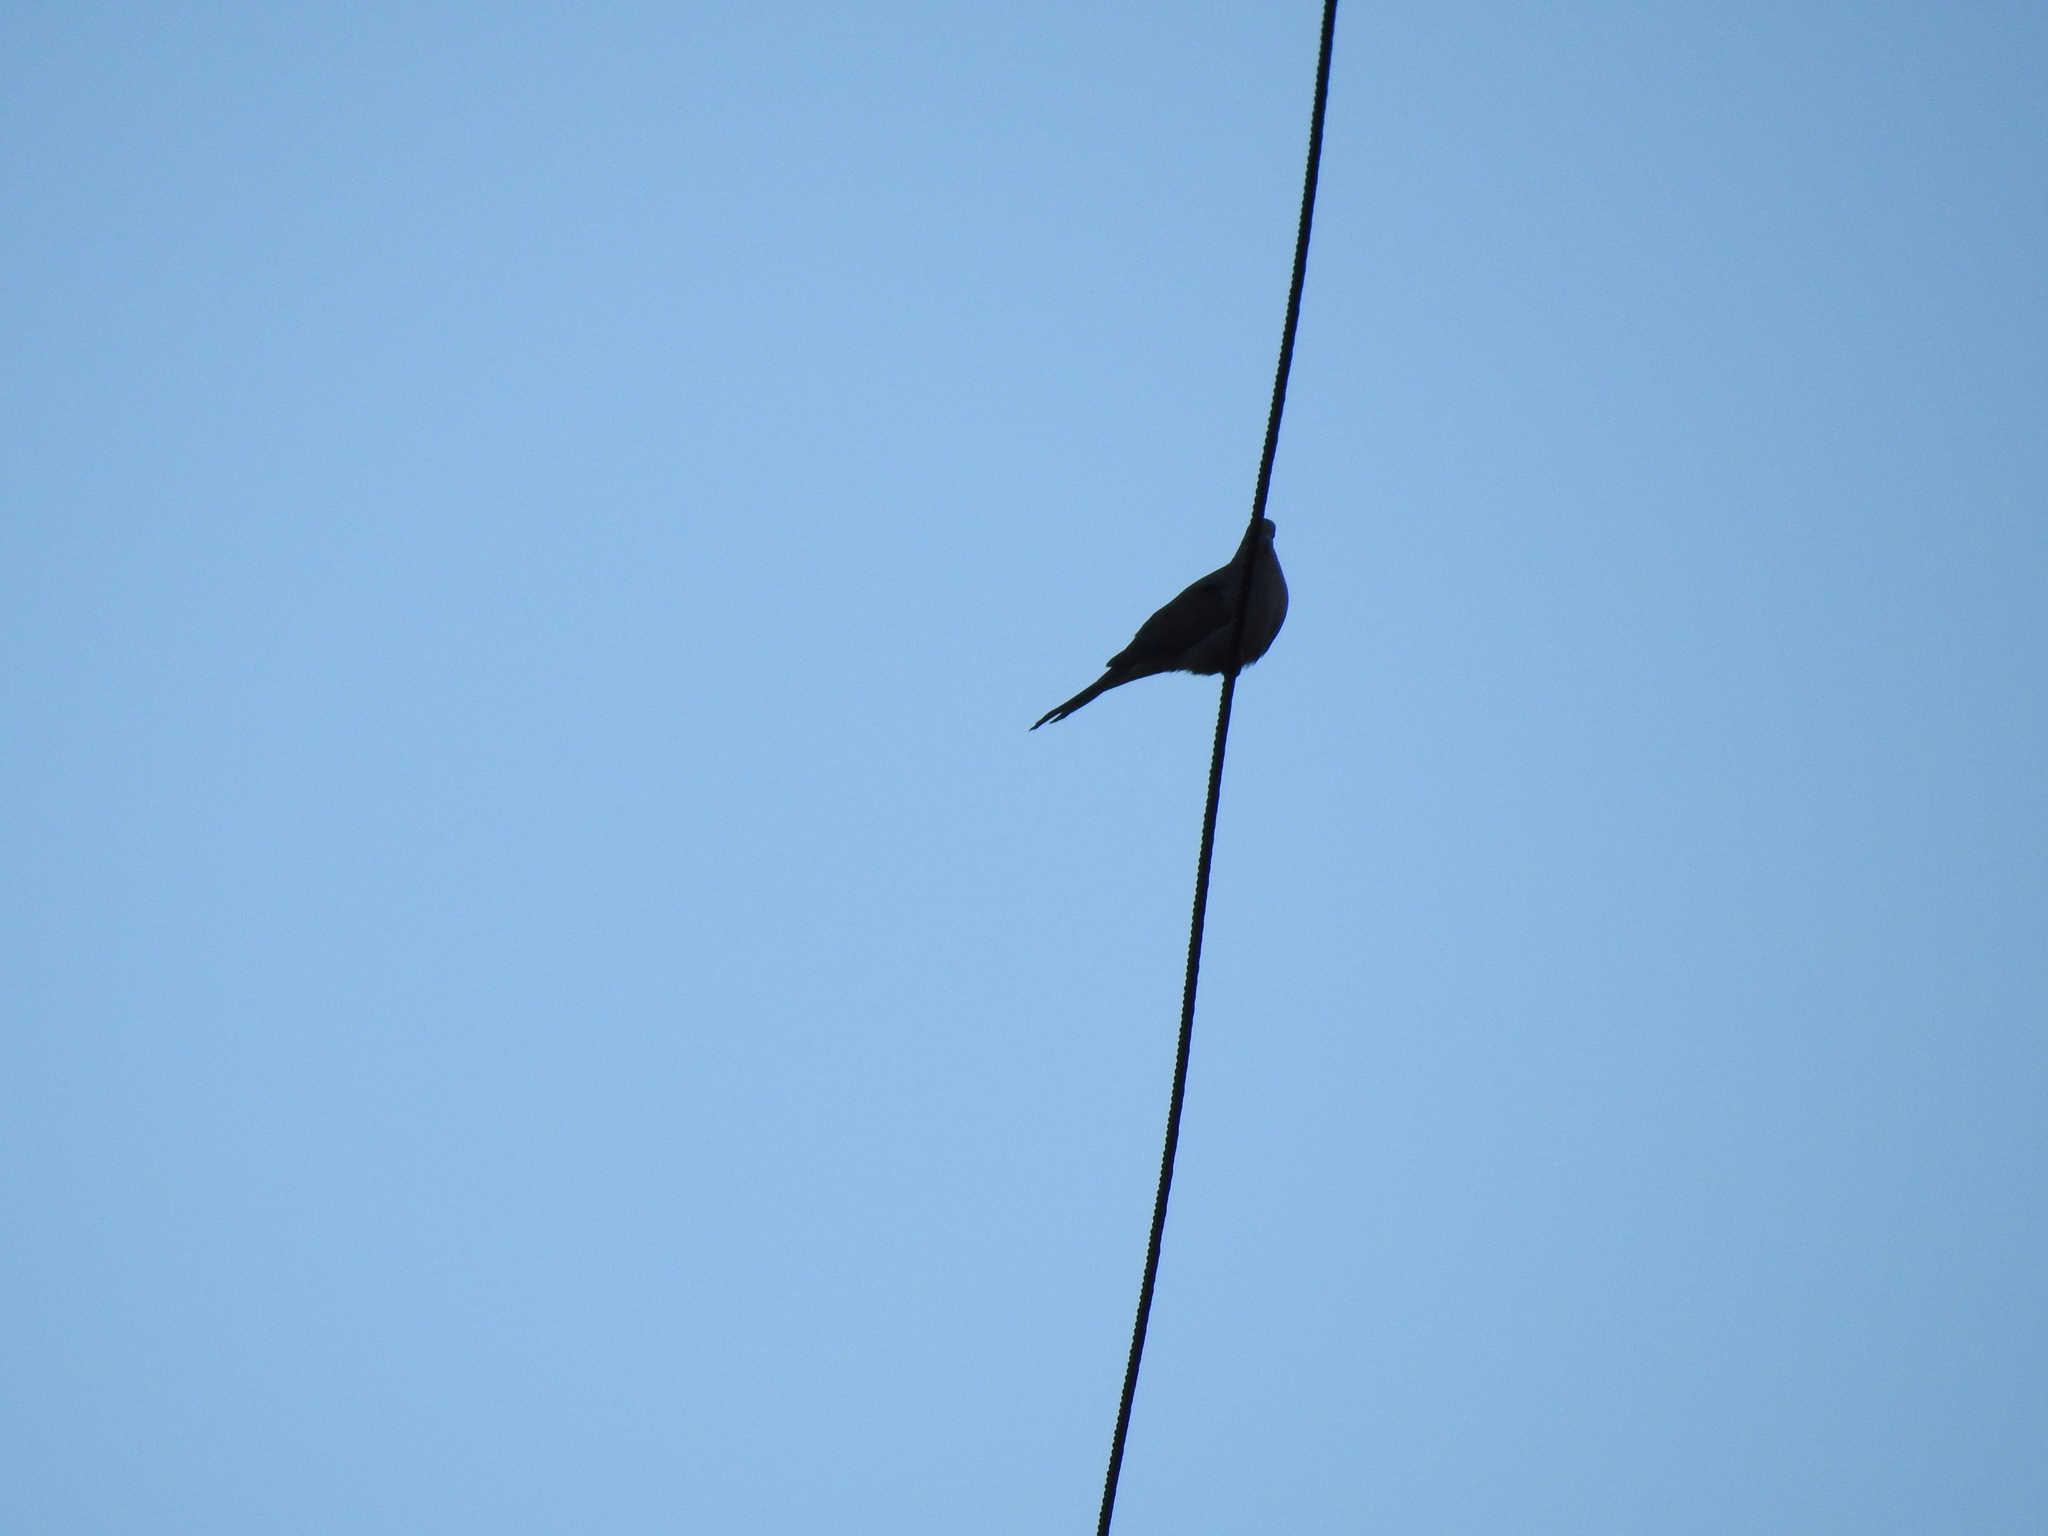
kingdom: Animalia
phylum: Chordata
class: Aves
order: Columbiformes
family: Columbidae
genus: Zenaida
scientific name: Zenaida macroura
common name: Mourning dove
